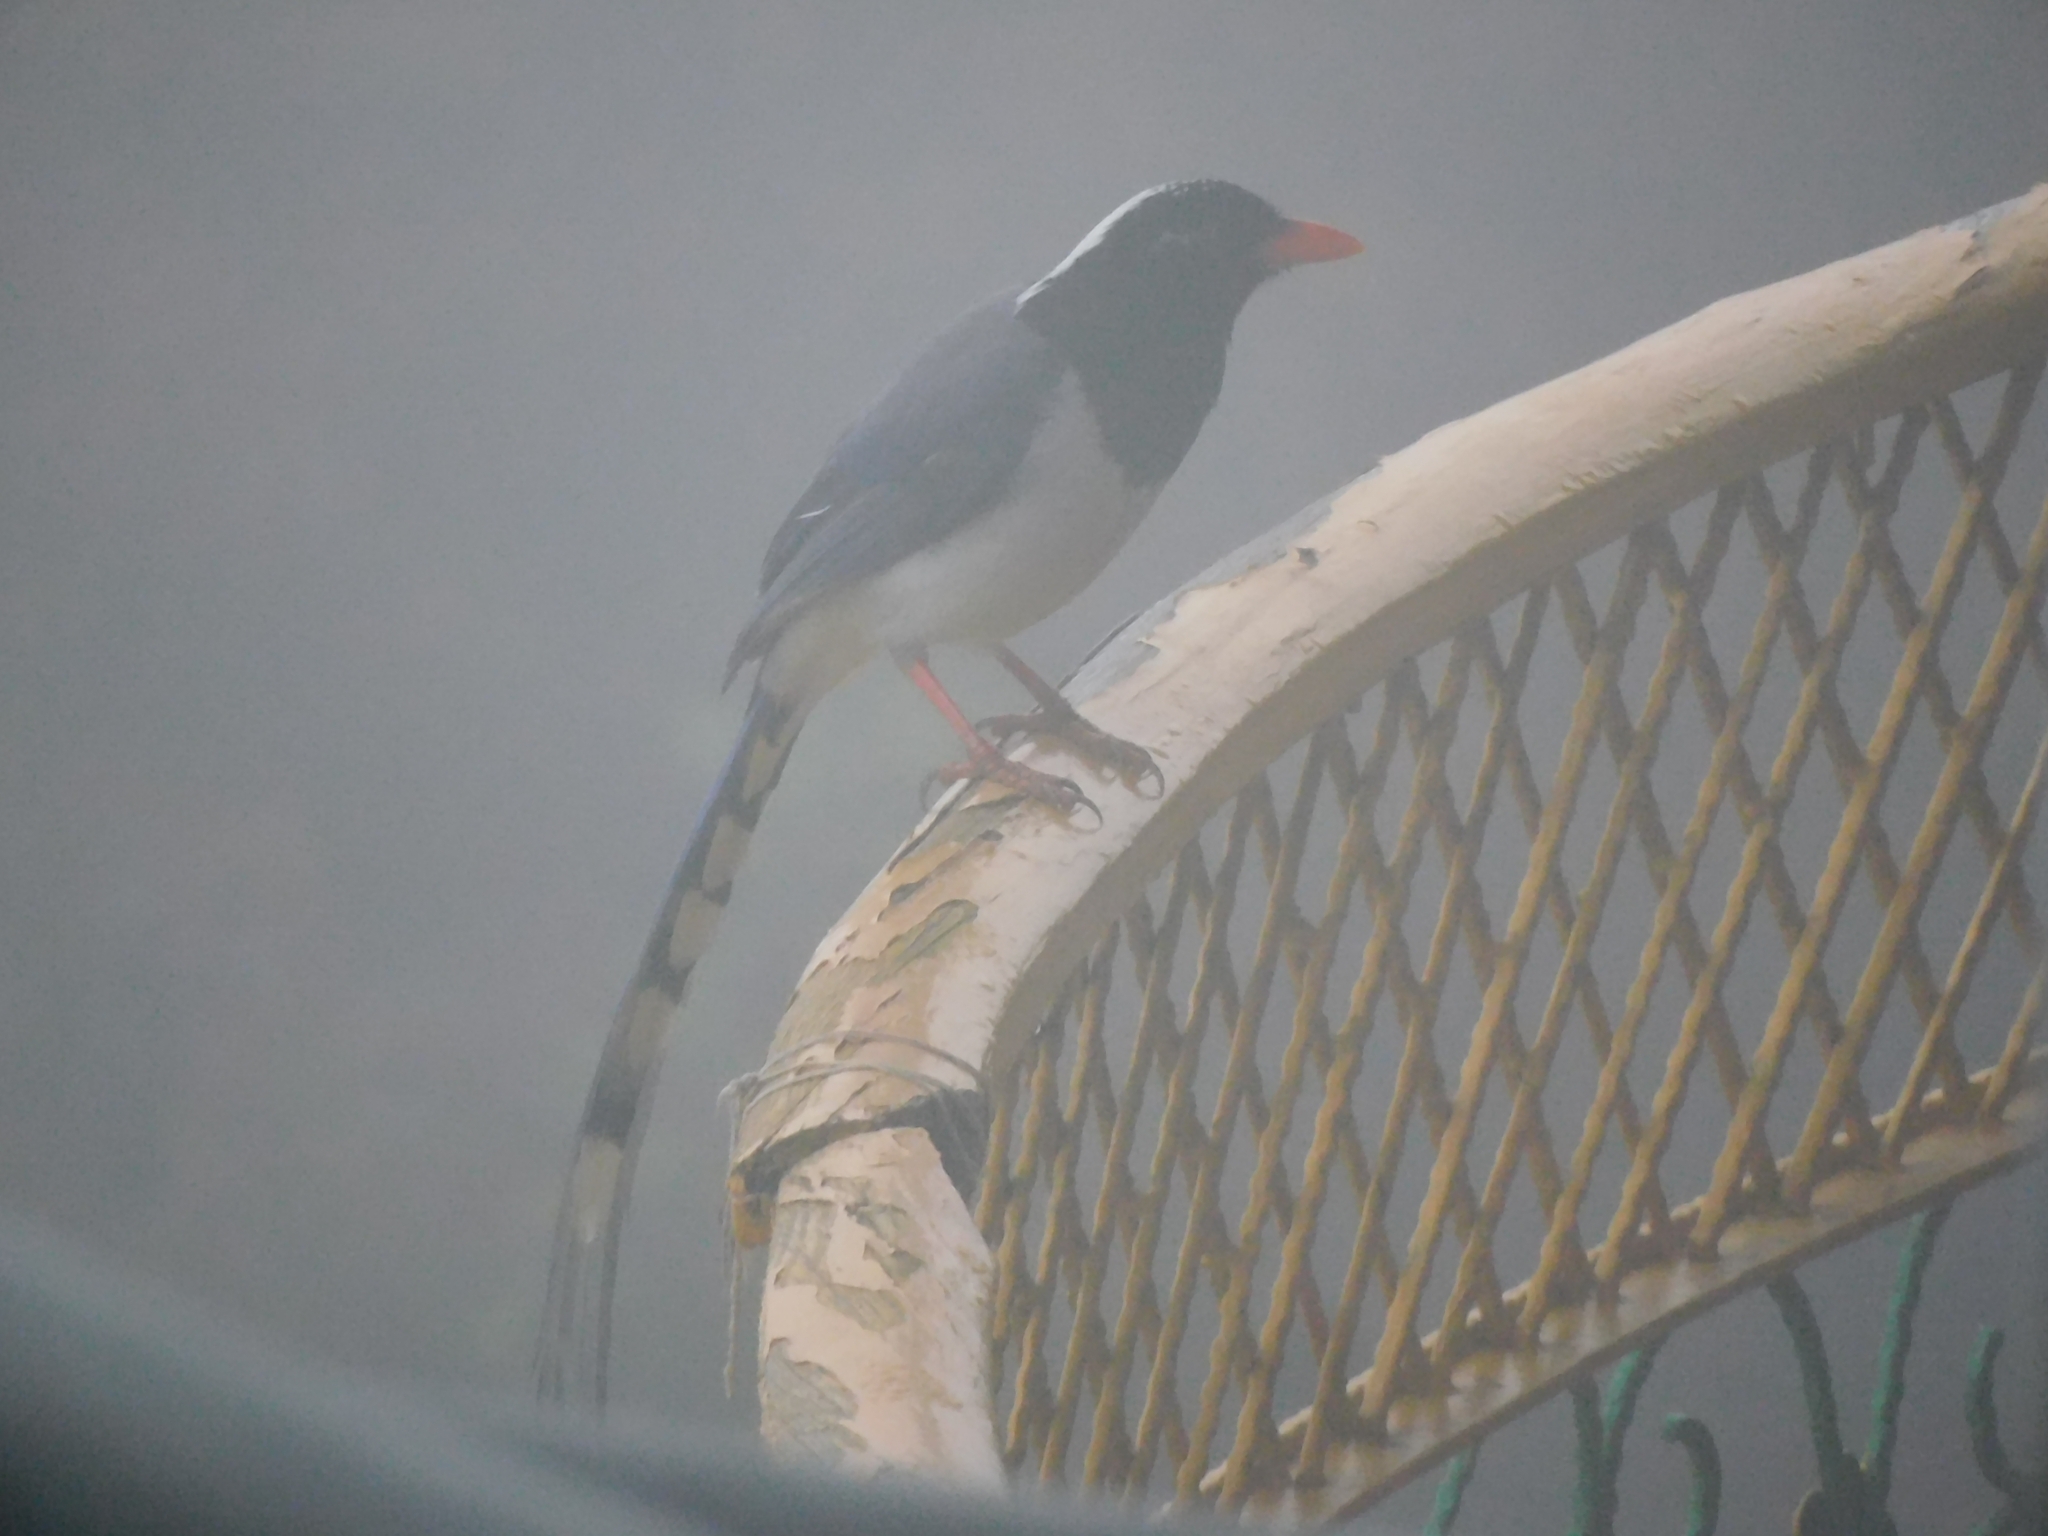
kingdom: Animalia
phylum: Chordata
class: Aves
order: Passeriformes
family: Corvidae
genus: Urocissa
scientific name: Urocissa erythroryncha
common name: Red-billed blue magpie
